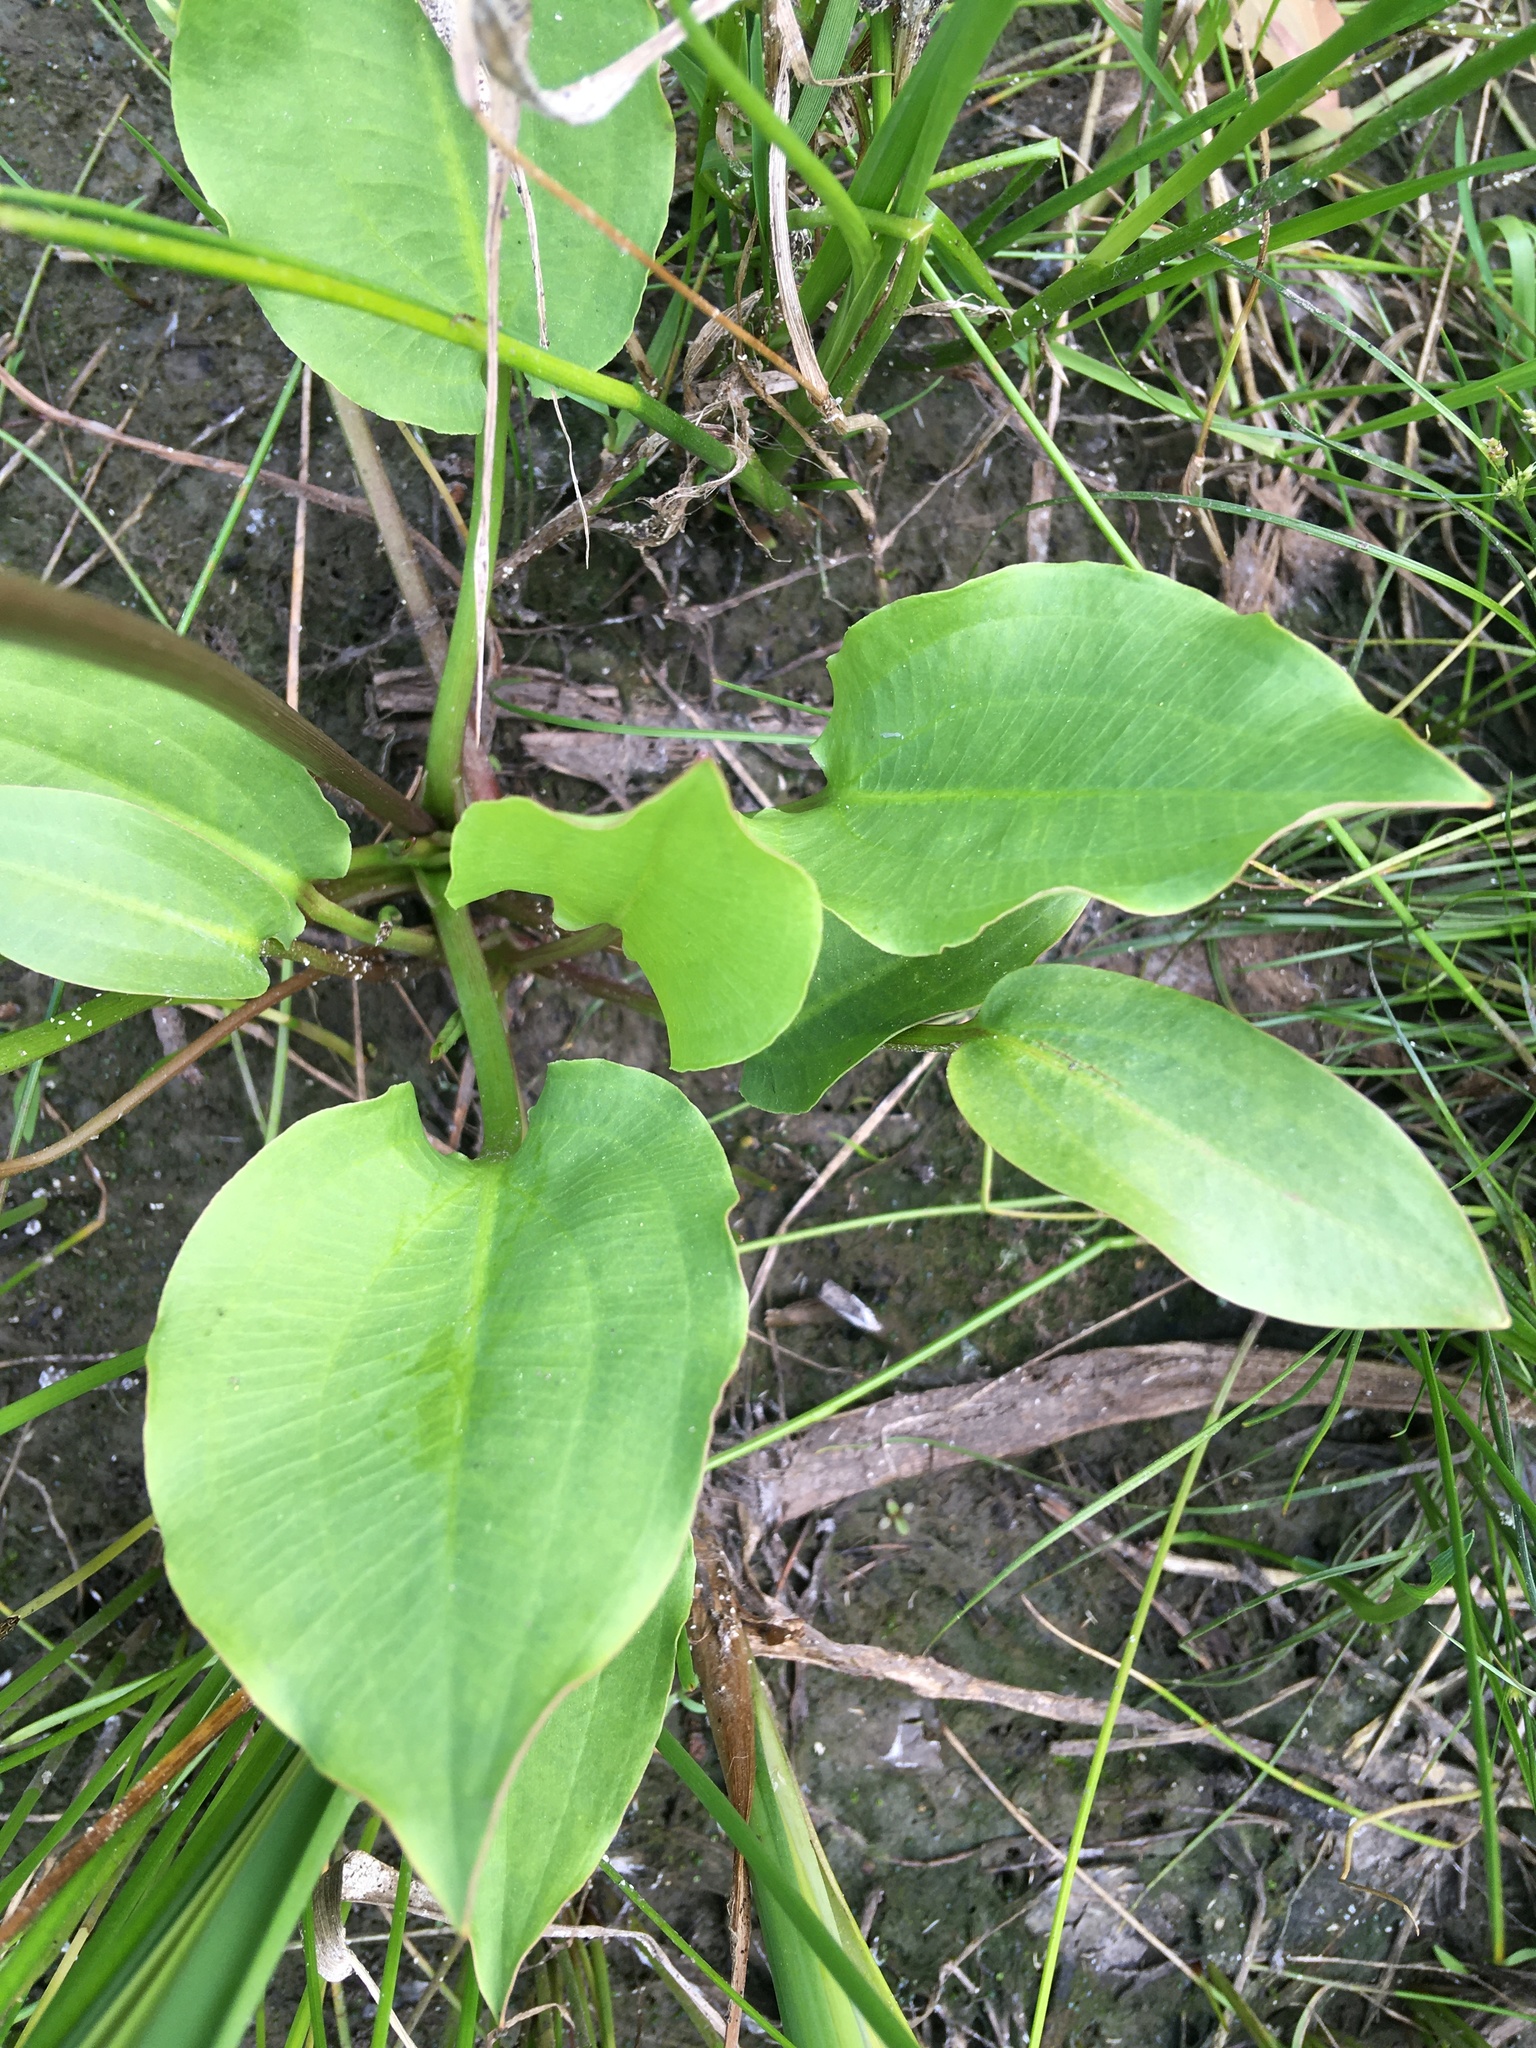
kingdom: Plantae
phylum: Tracheophyta
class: Liliopsida
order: Alismatales
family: Alismataceae
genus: Alisma
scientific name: Alisma plantago-aquatica
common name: Water-plantain
